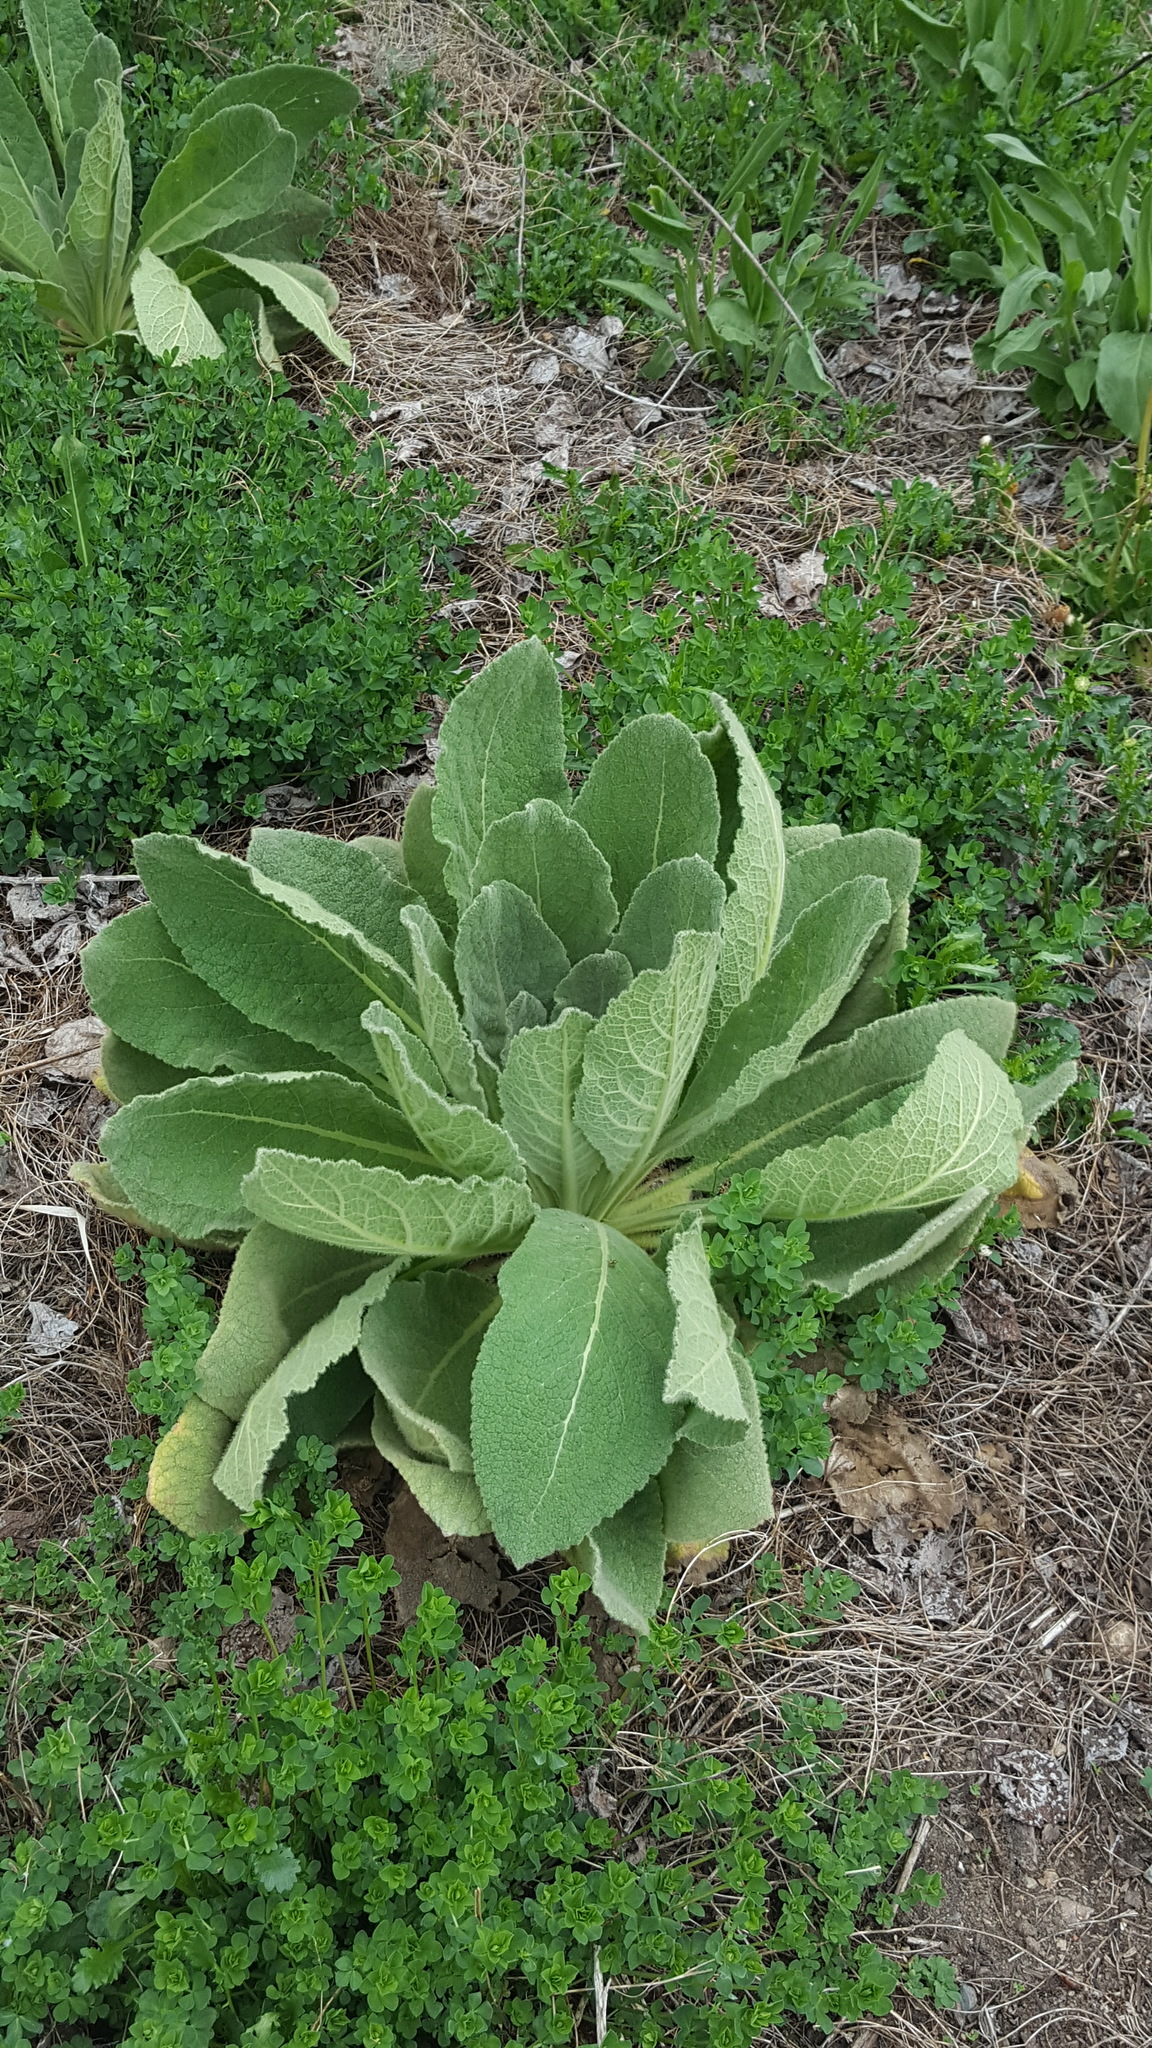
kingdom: Plantae
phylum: Tracheophyta
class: Magnoliopsida
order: Lamiales
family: Scrophulariaceae
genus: Verbascum
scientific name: Verbascum thapsus
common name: Common mullein
